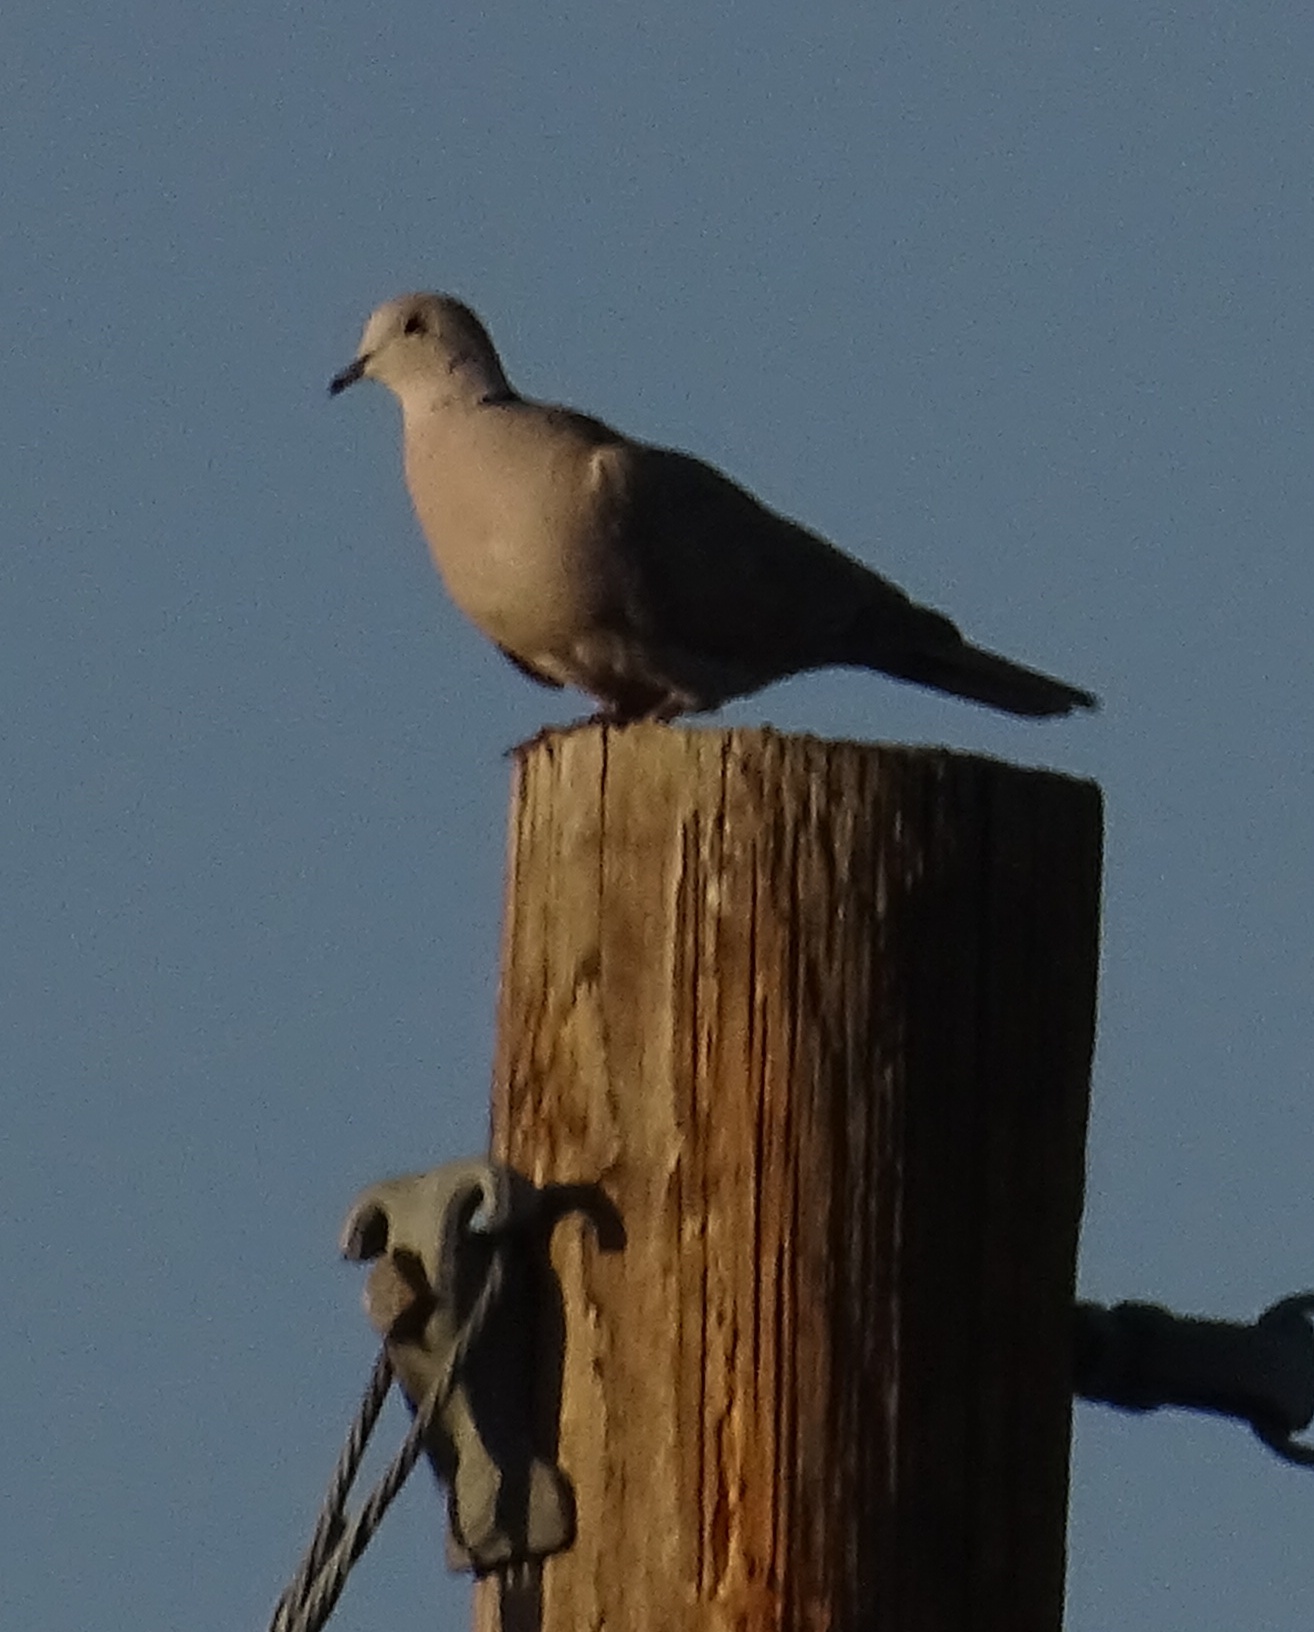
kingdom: Animalia
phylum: Chordata
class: Aves
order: Columbiformes
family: Columbidae
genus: Streptopelia
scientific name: Streptopelia decaocto
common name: Eurasian collared dove
